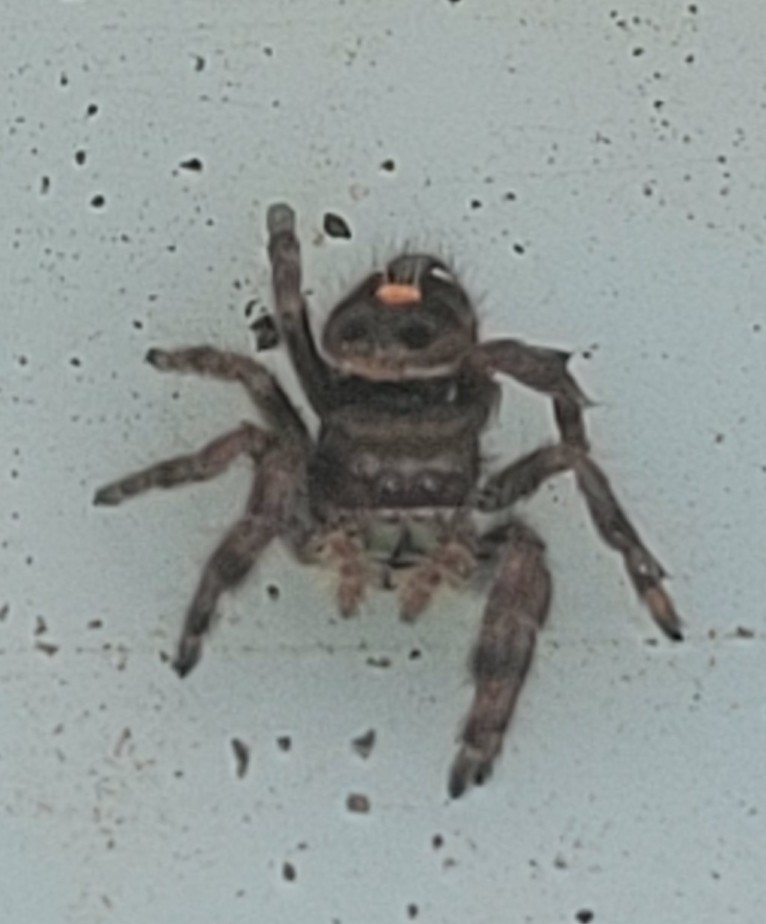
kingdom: Animalia
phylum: Arthropoda
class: Arachnida
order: Araneae
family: Salticidae
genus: Phidippus
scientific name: Phidippus audax
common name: Bold jumper
